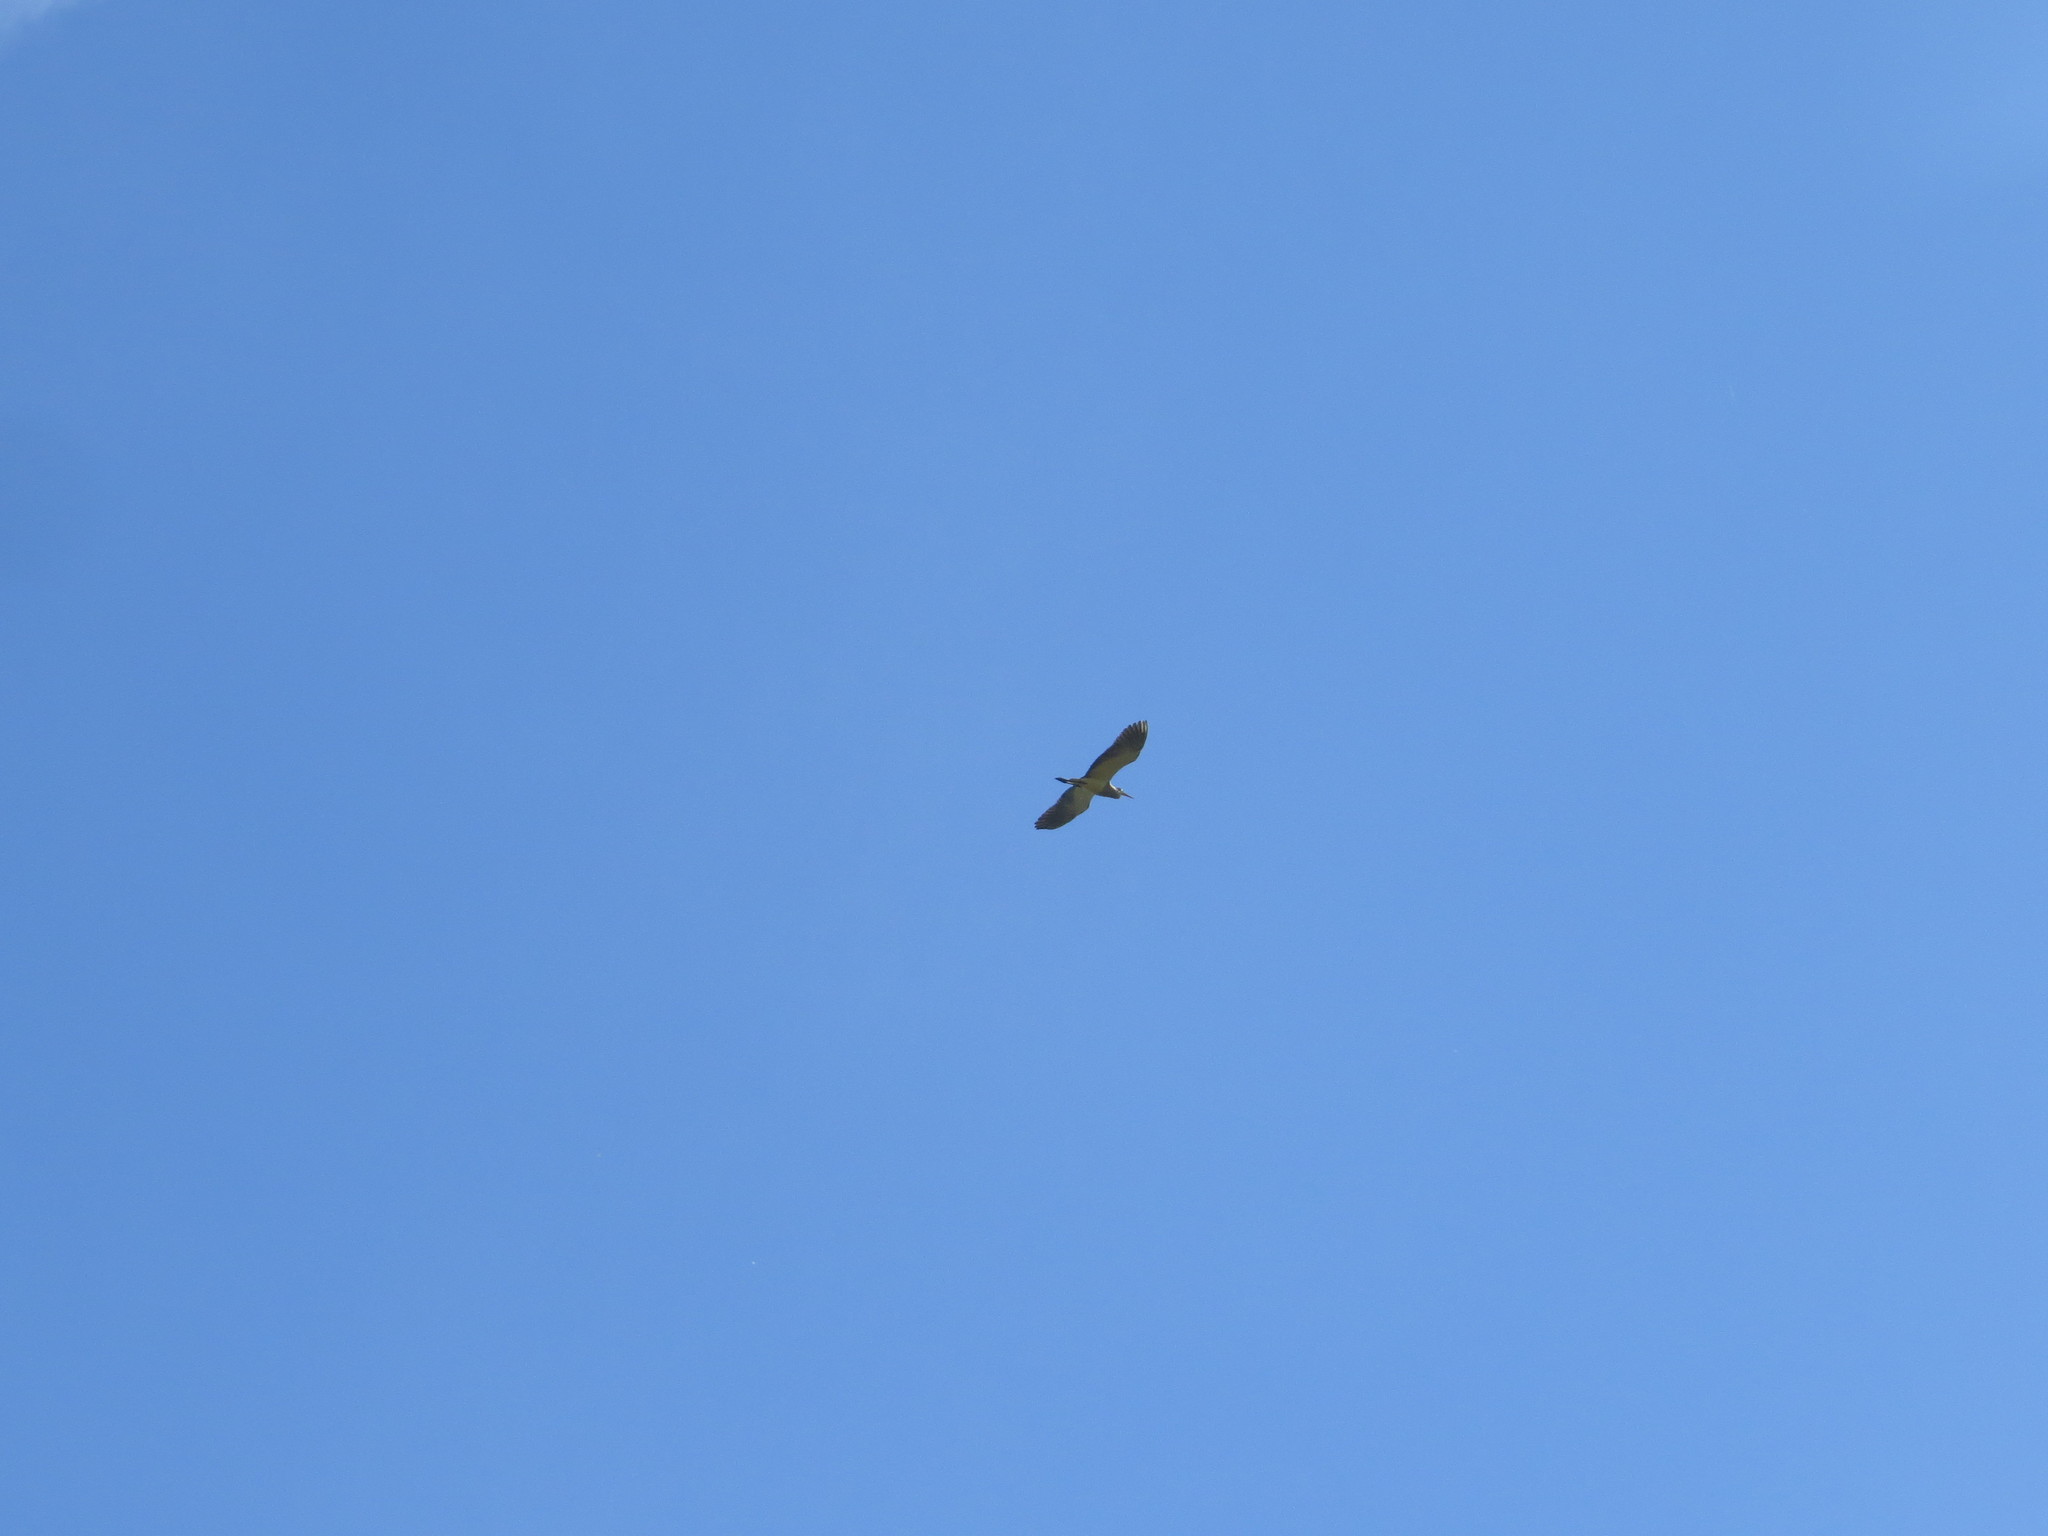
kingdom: Animalia
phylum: Chordata
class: Aves
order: Pelecaniformes
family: Ardeidae
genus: Syrigma
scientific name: Syrigma sibilatrix
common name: Whistling heron
